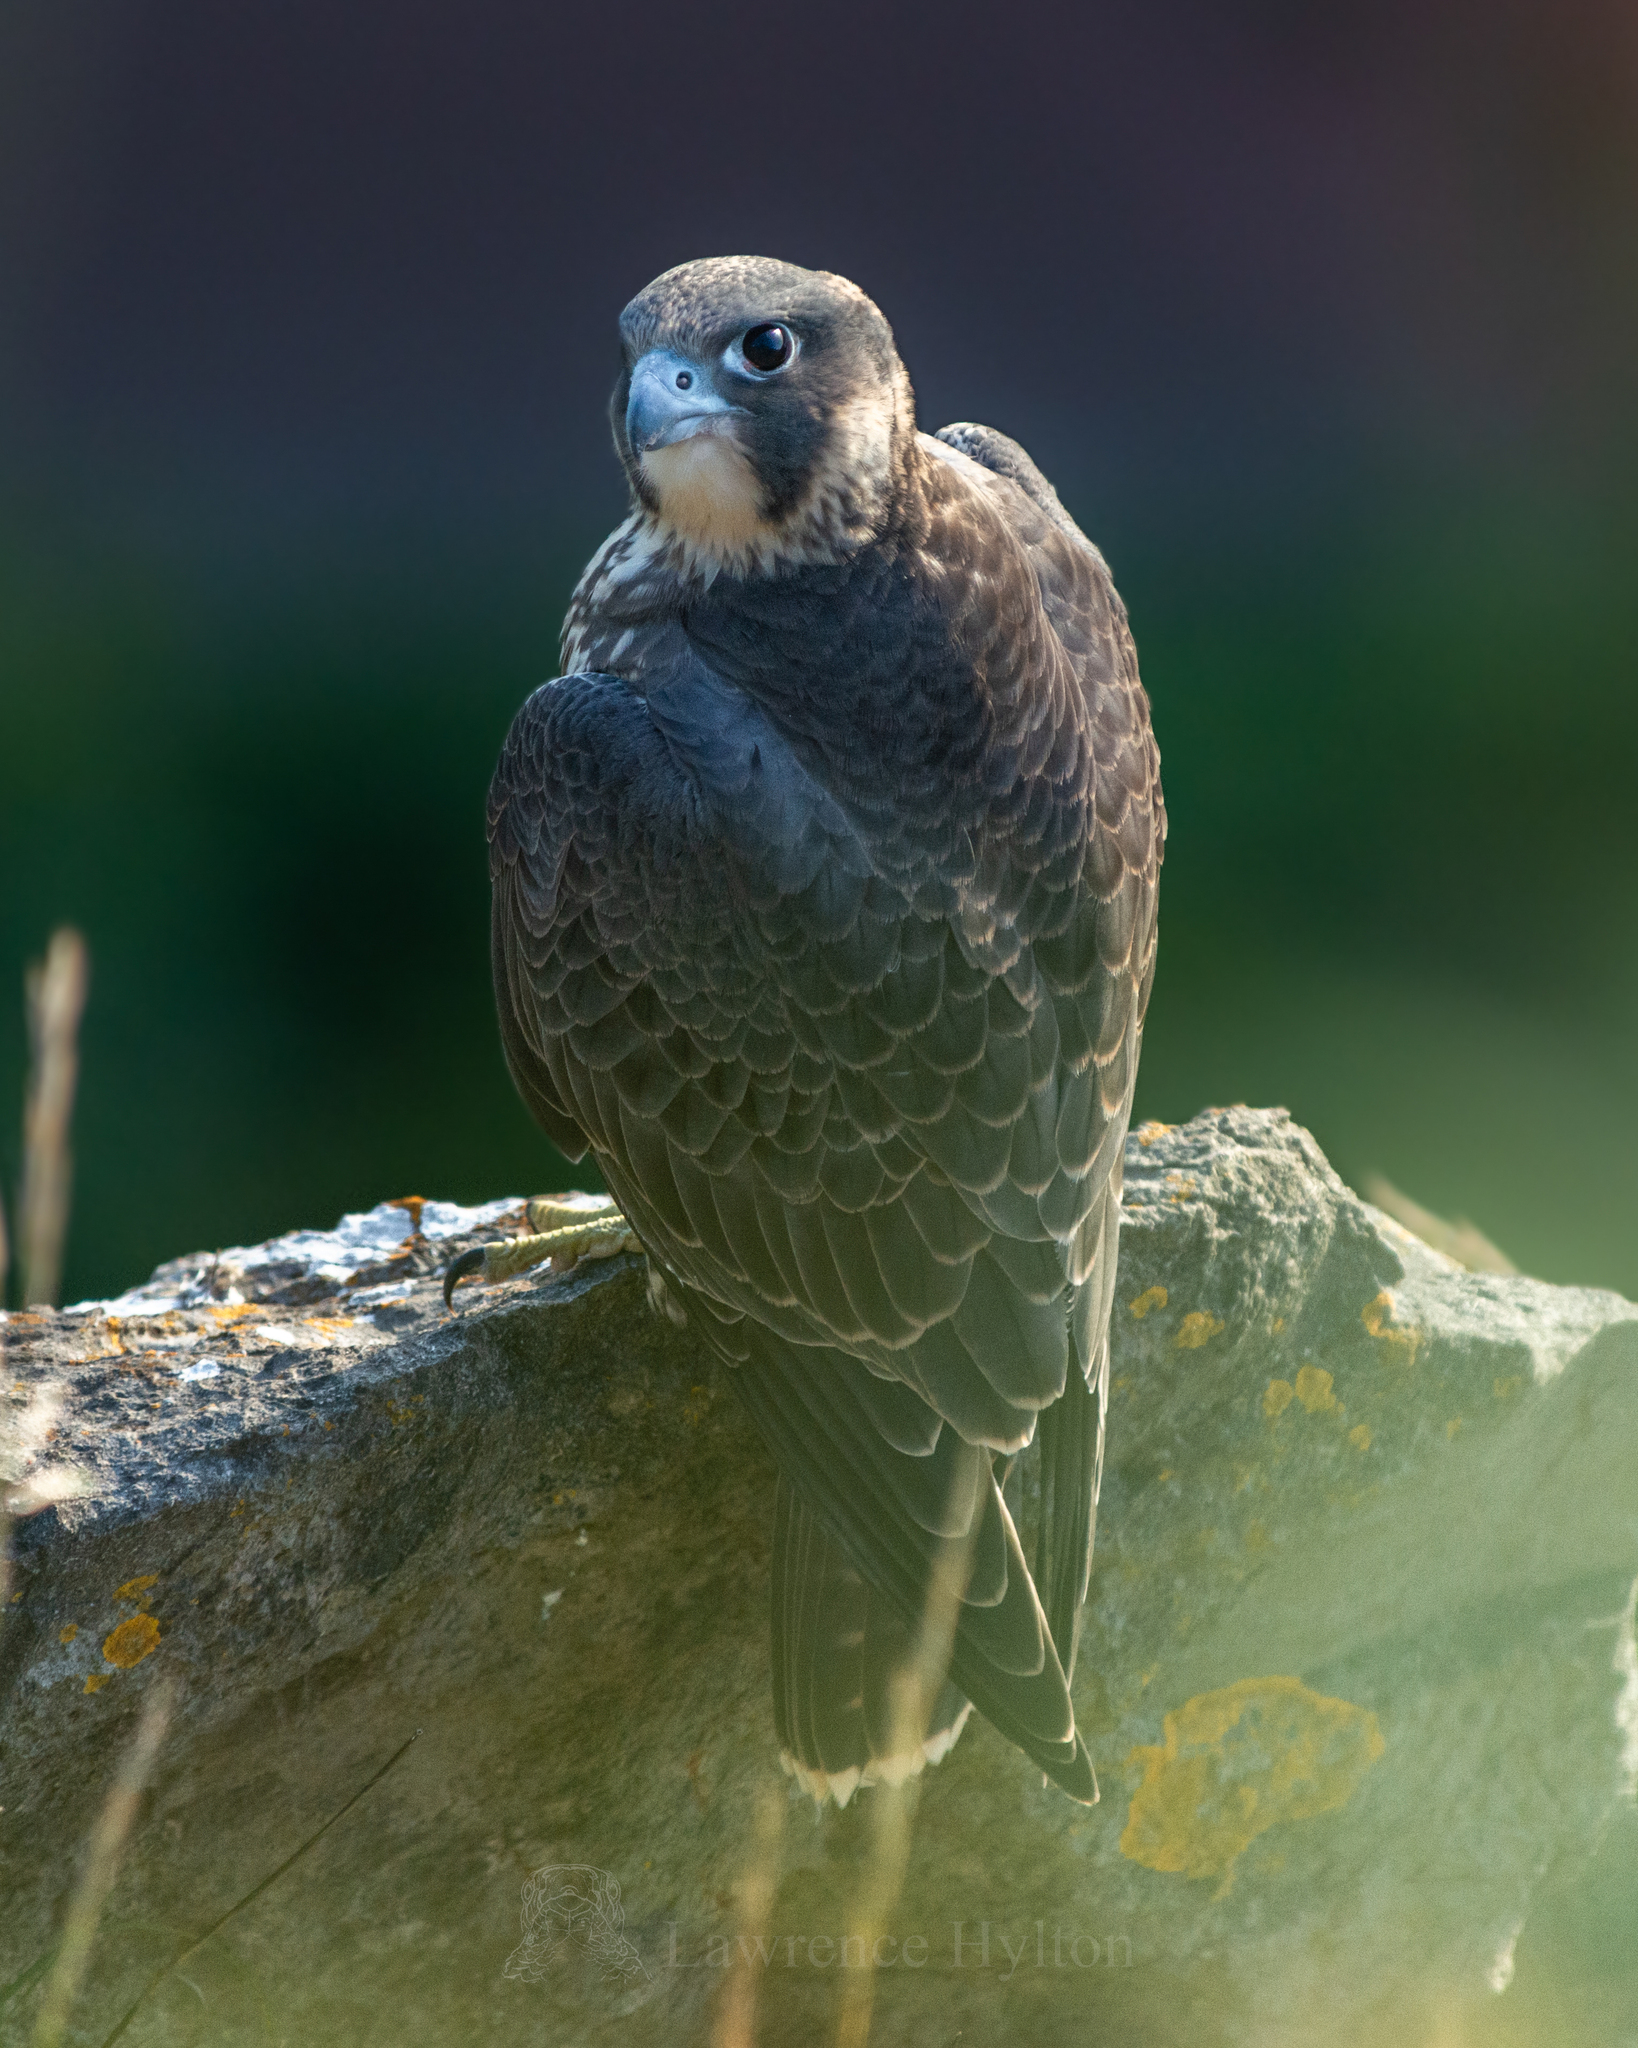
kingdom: Animalia
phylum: Chordata
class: Aves
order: Falconiformes
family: Falconidae
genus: Falco
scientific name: Falco peregrinus
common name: Peregrine falcon
